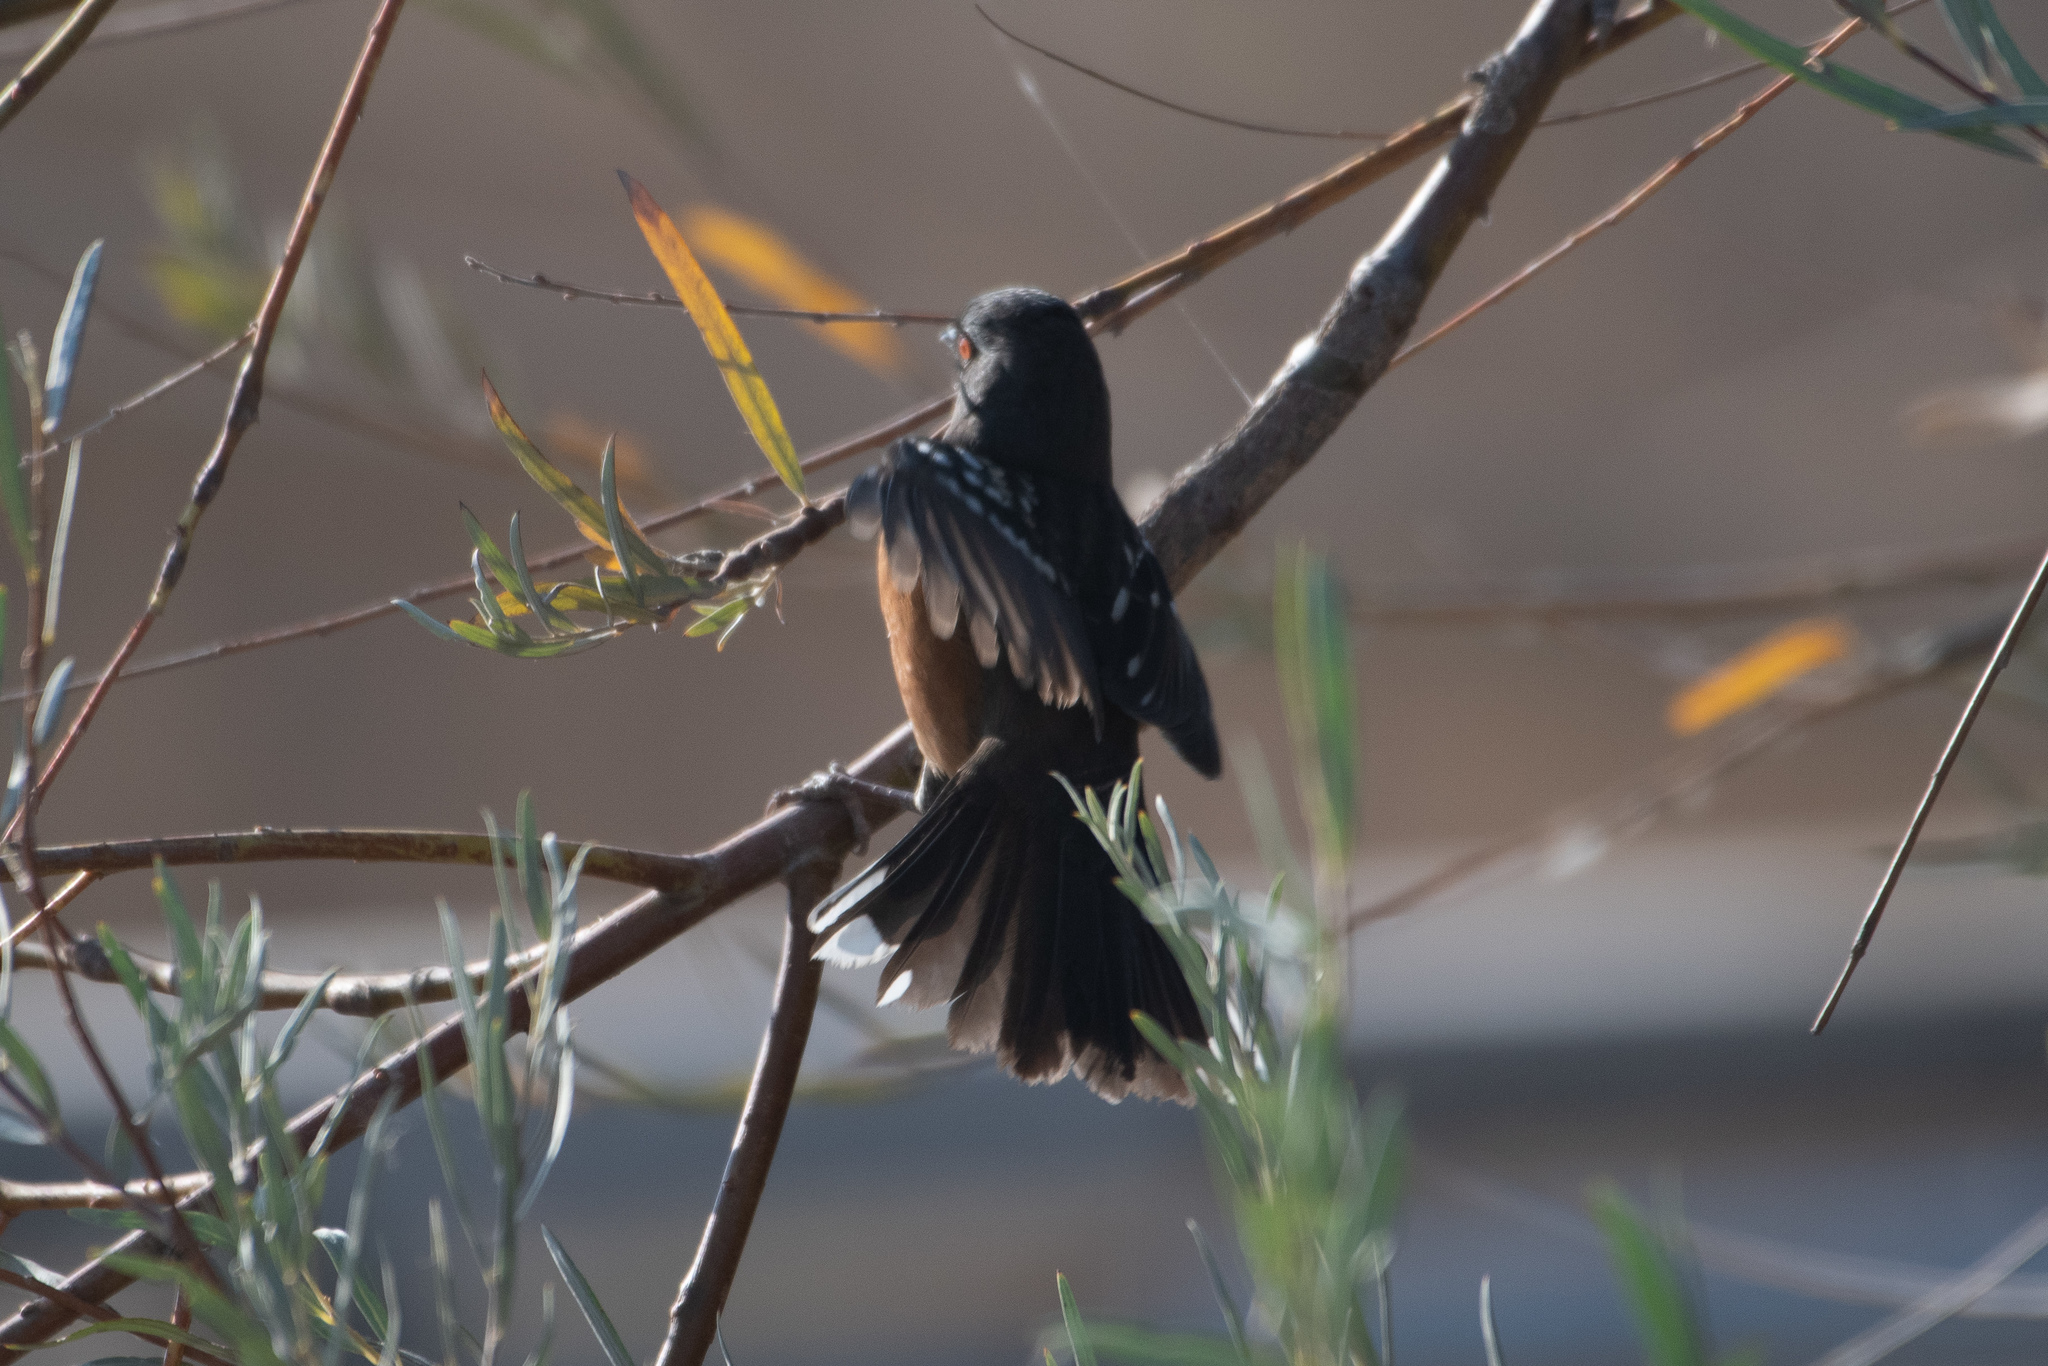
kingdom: Animalia
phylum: Chordata
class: Aves
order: Passeriformes
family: Passerellidae
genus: Pipilo
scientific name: Pipilo maculatus
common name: Spotted towhee
